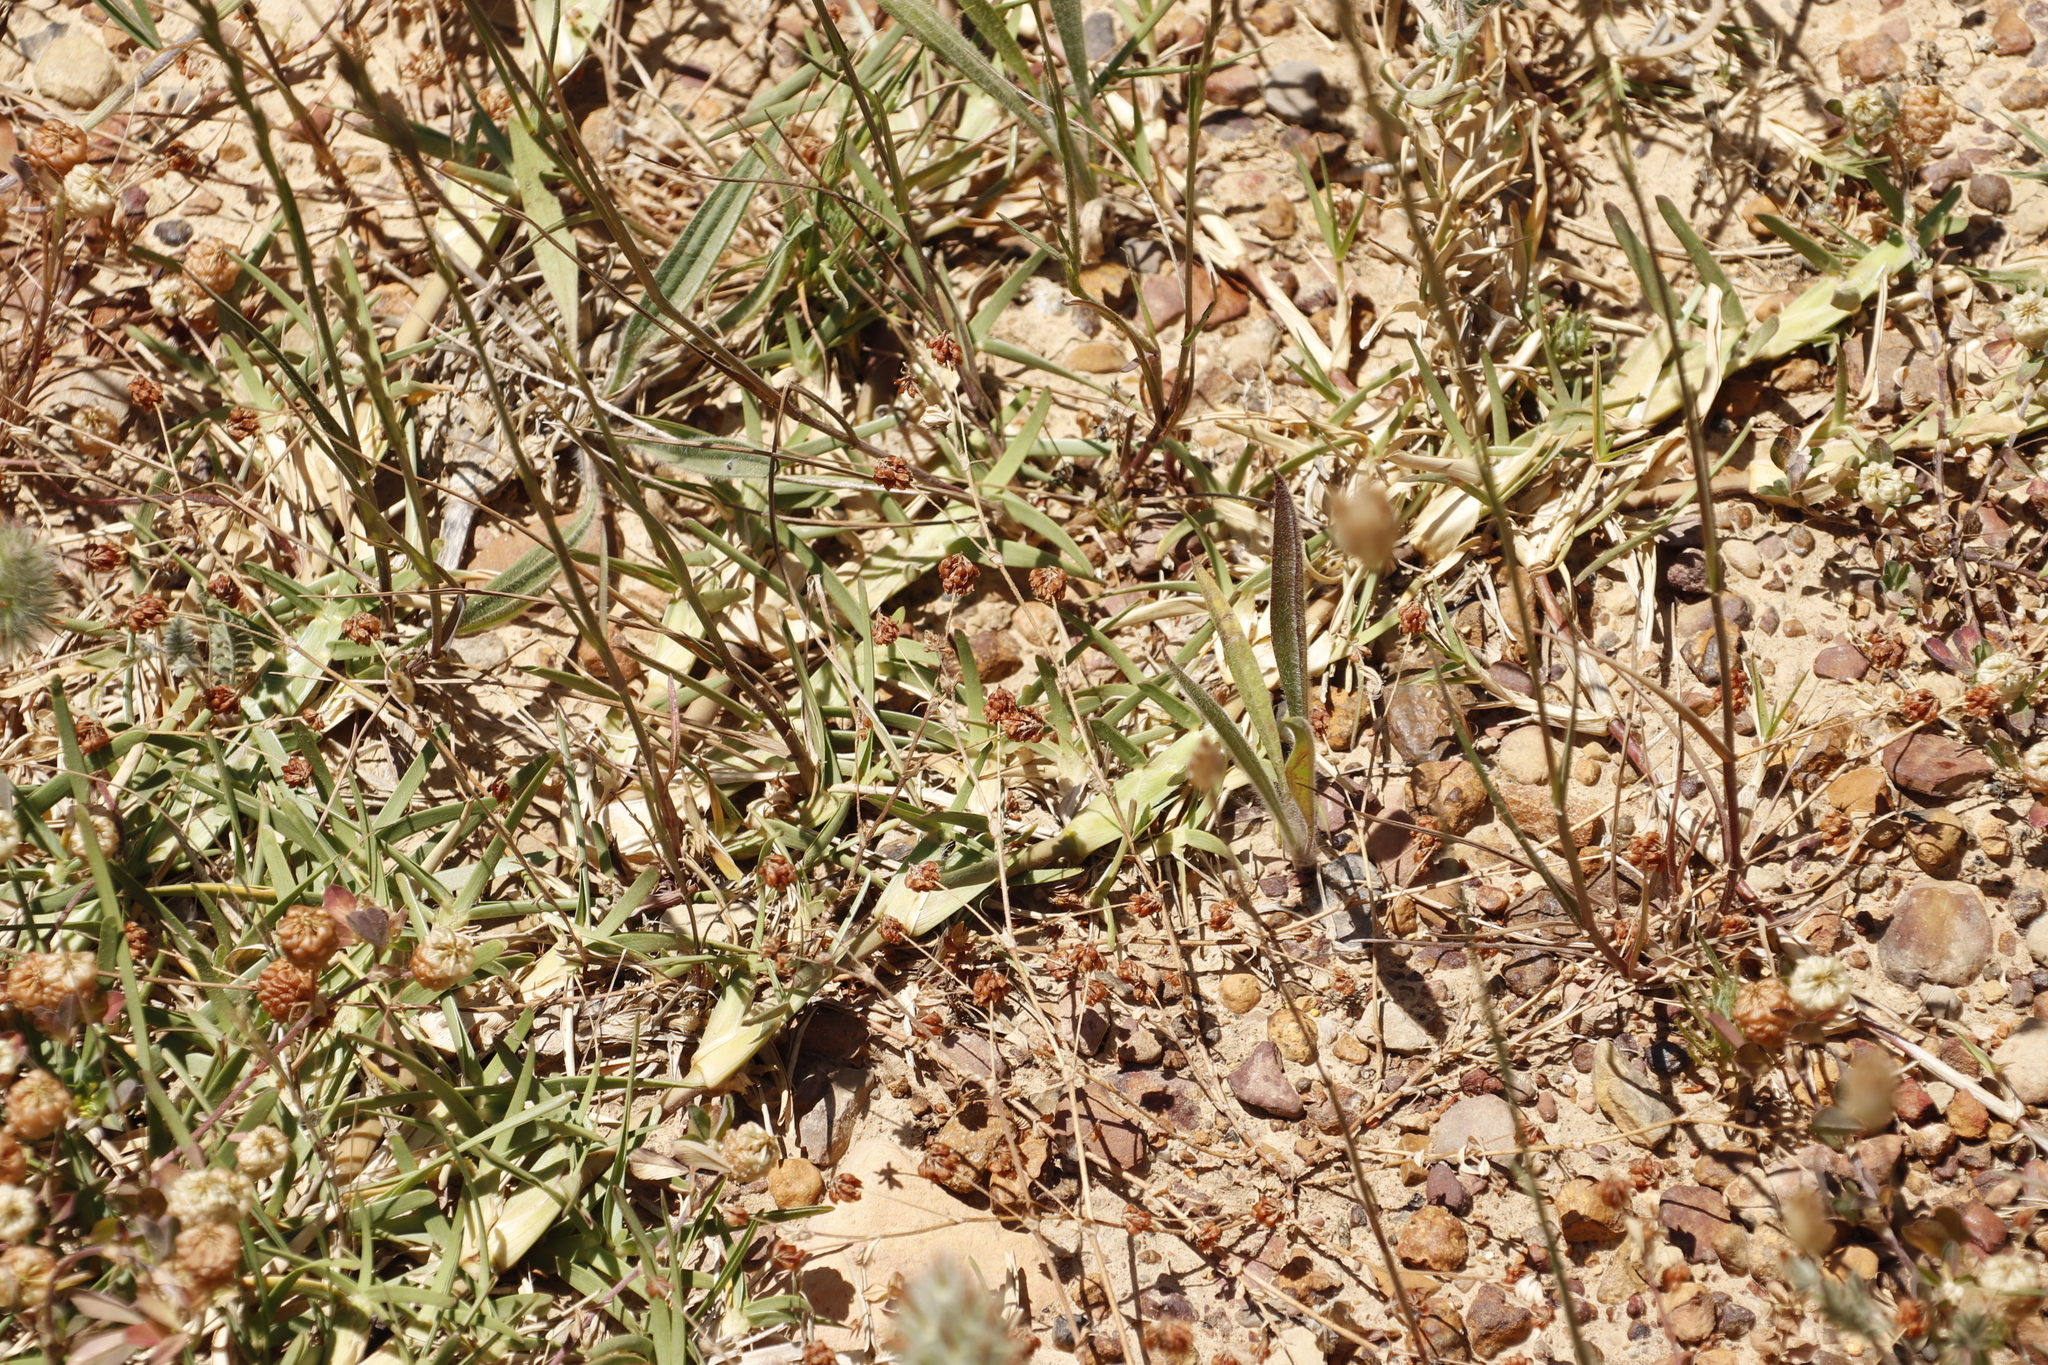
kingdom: Plantae
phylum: Tracheophyta
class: Liliopsida
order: Poales
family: Poaceae
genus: Stenotaphrum
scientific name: Stenotaphrum secundatum
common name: St. augustine grass
